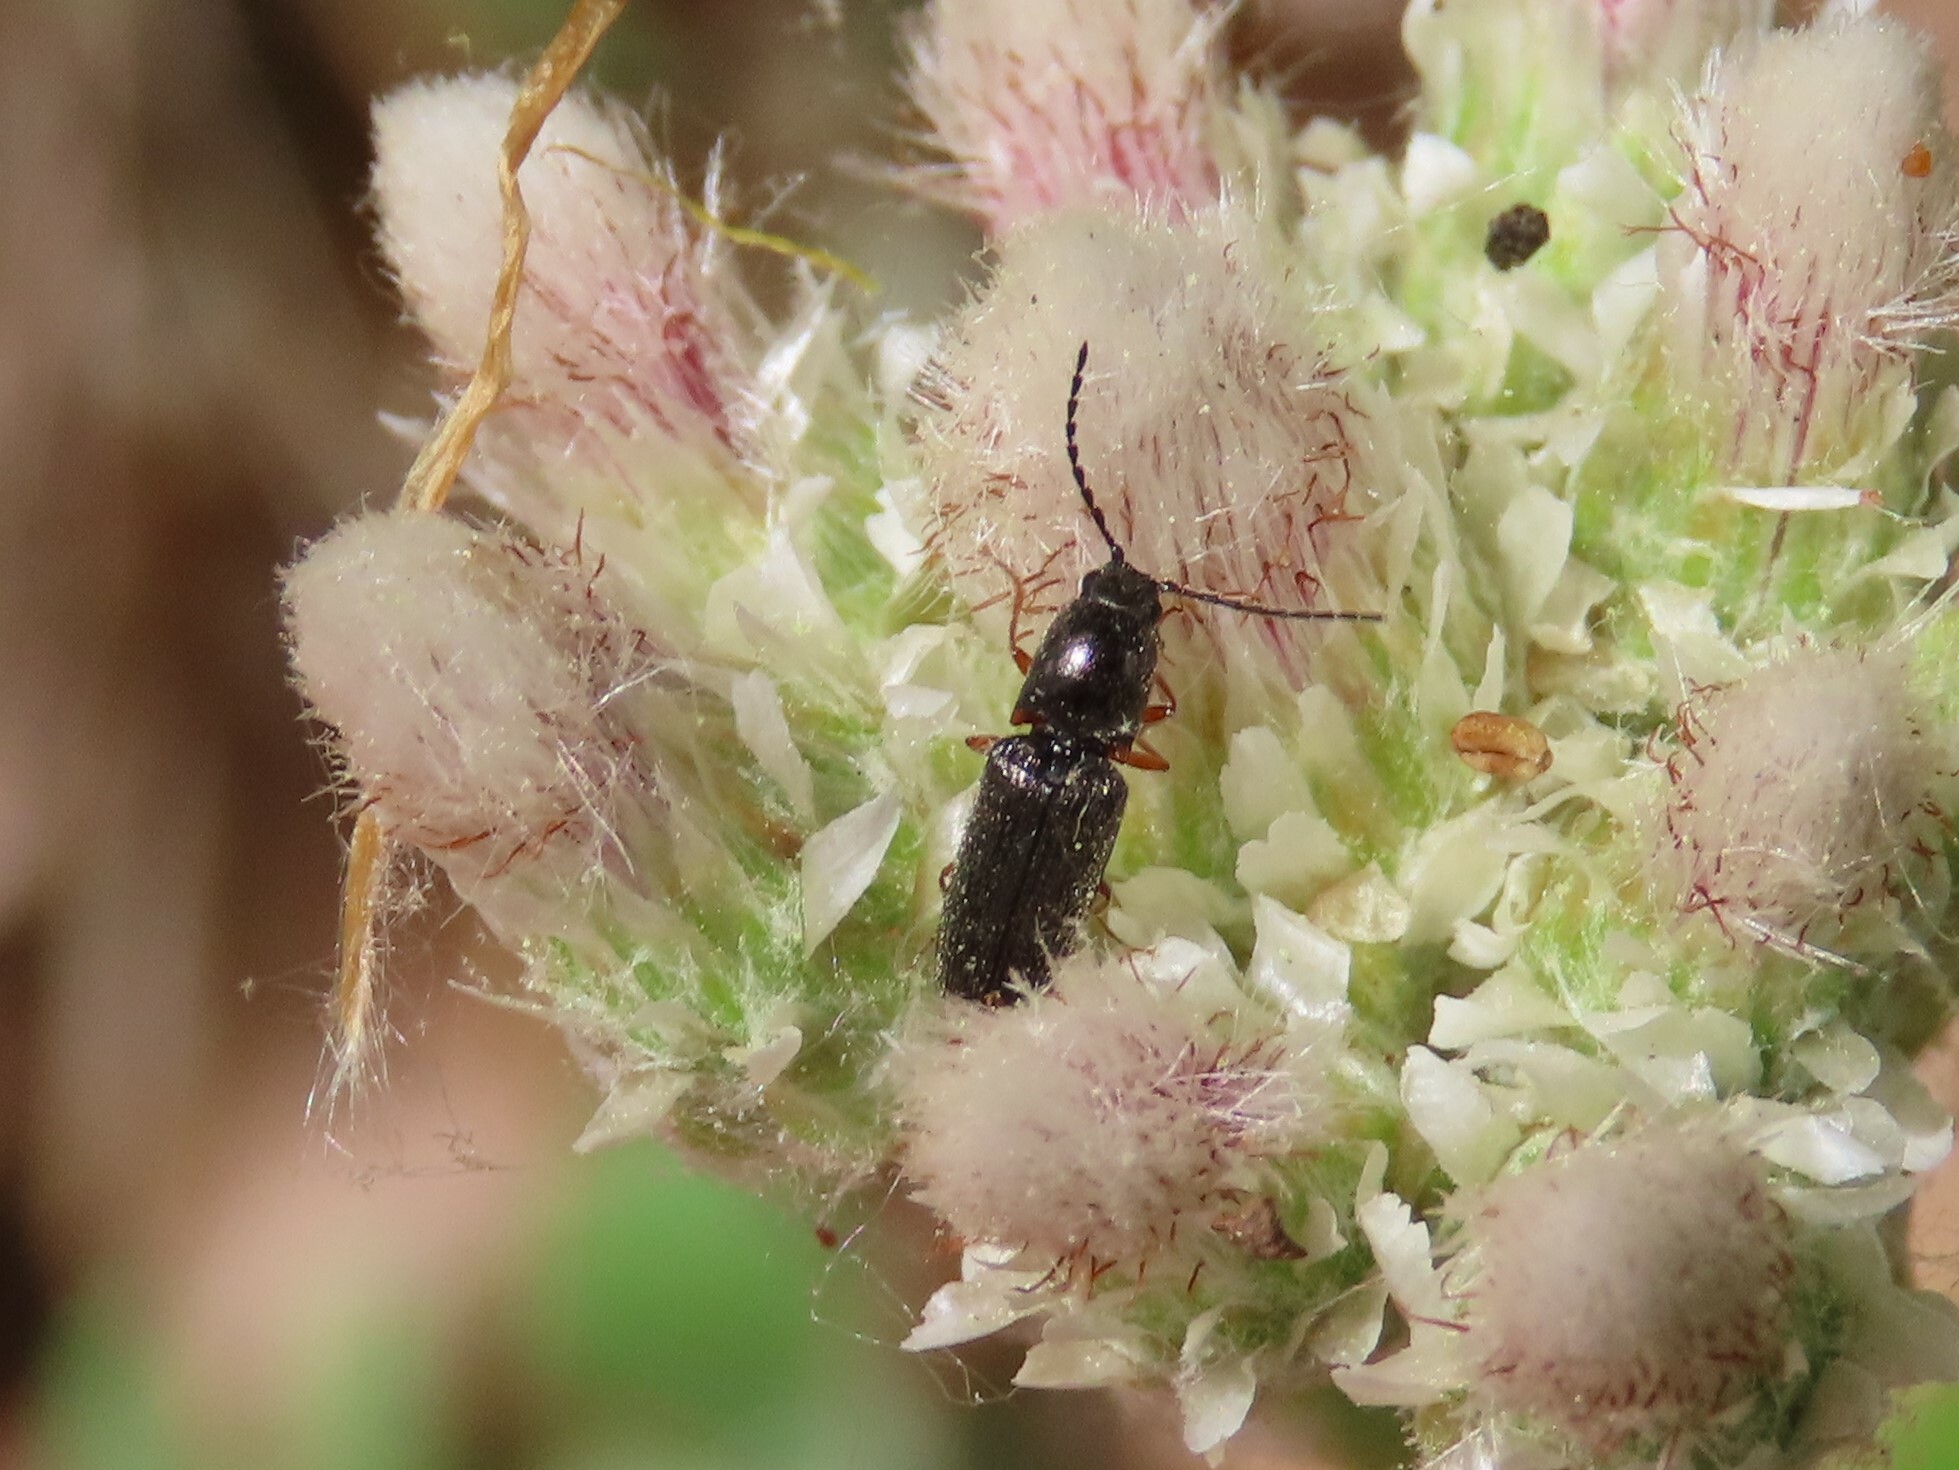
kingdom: Animalia
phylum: Arthropoda
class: Insecta
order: Coleoptera
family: Elateridae
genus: Limonius
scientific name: Limonius basilaris
